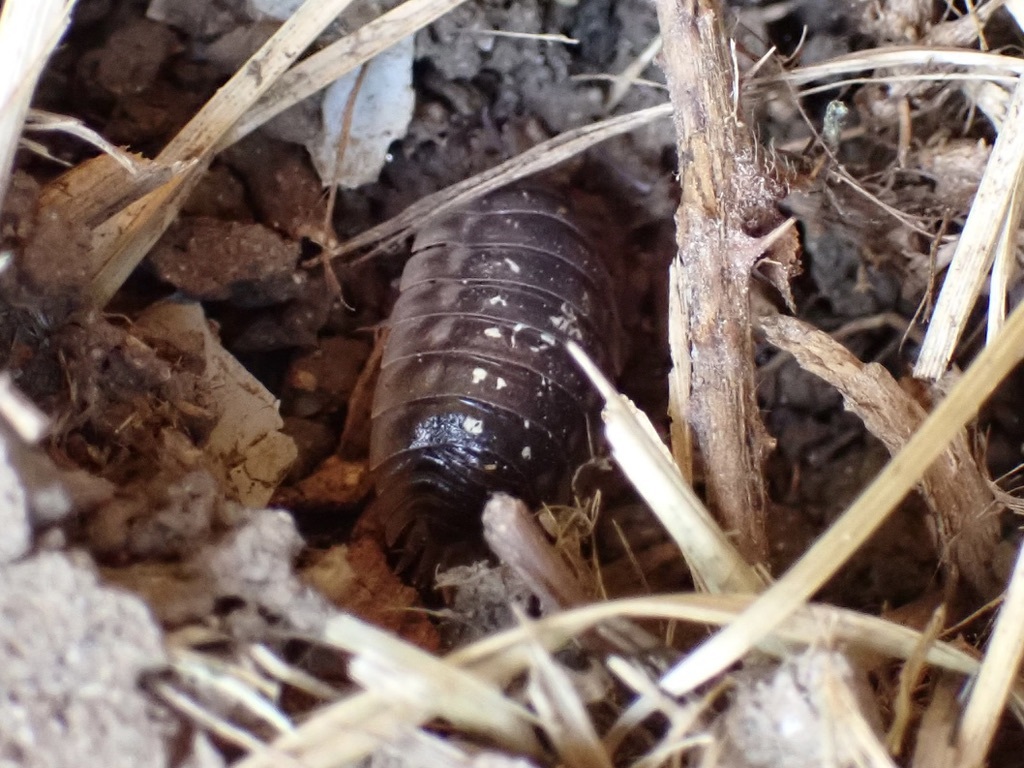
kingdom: Animalia
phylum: Arthropoda
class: Malacostraca
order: Isopoda
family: Oniscidae
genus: Oniscus
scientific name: Oniscus asellus
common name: Common shiny woodlouse
